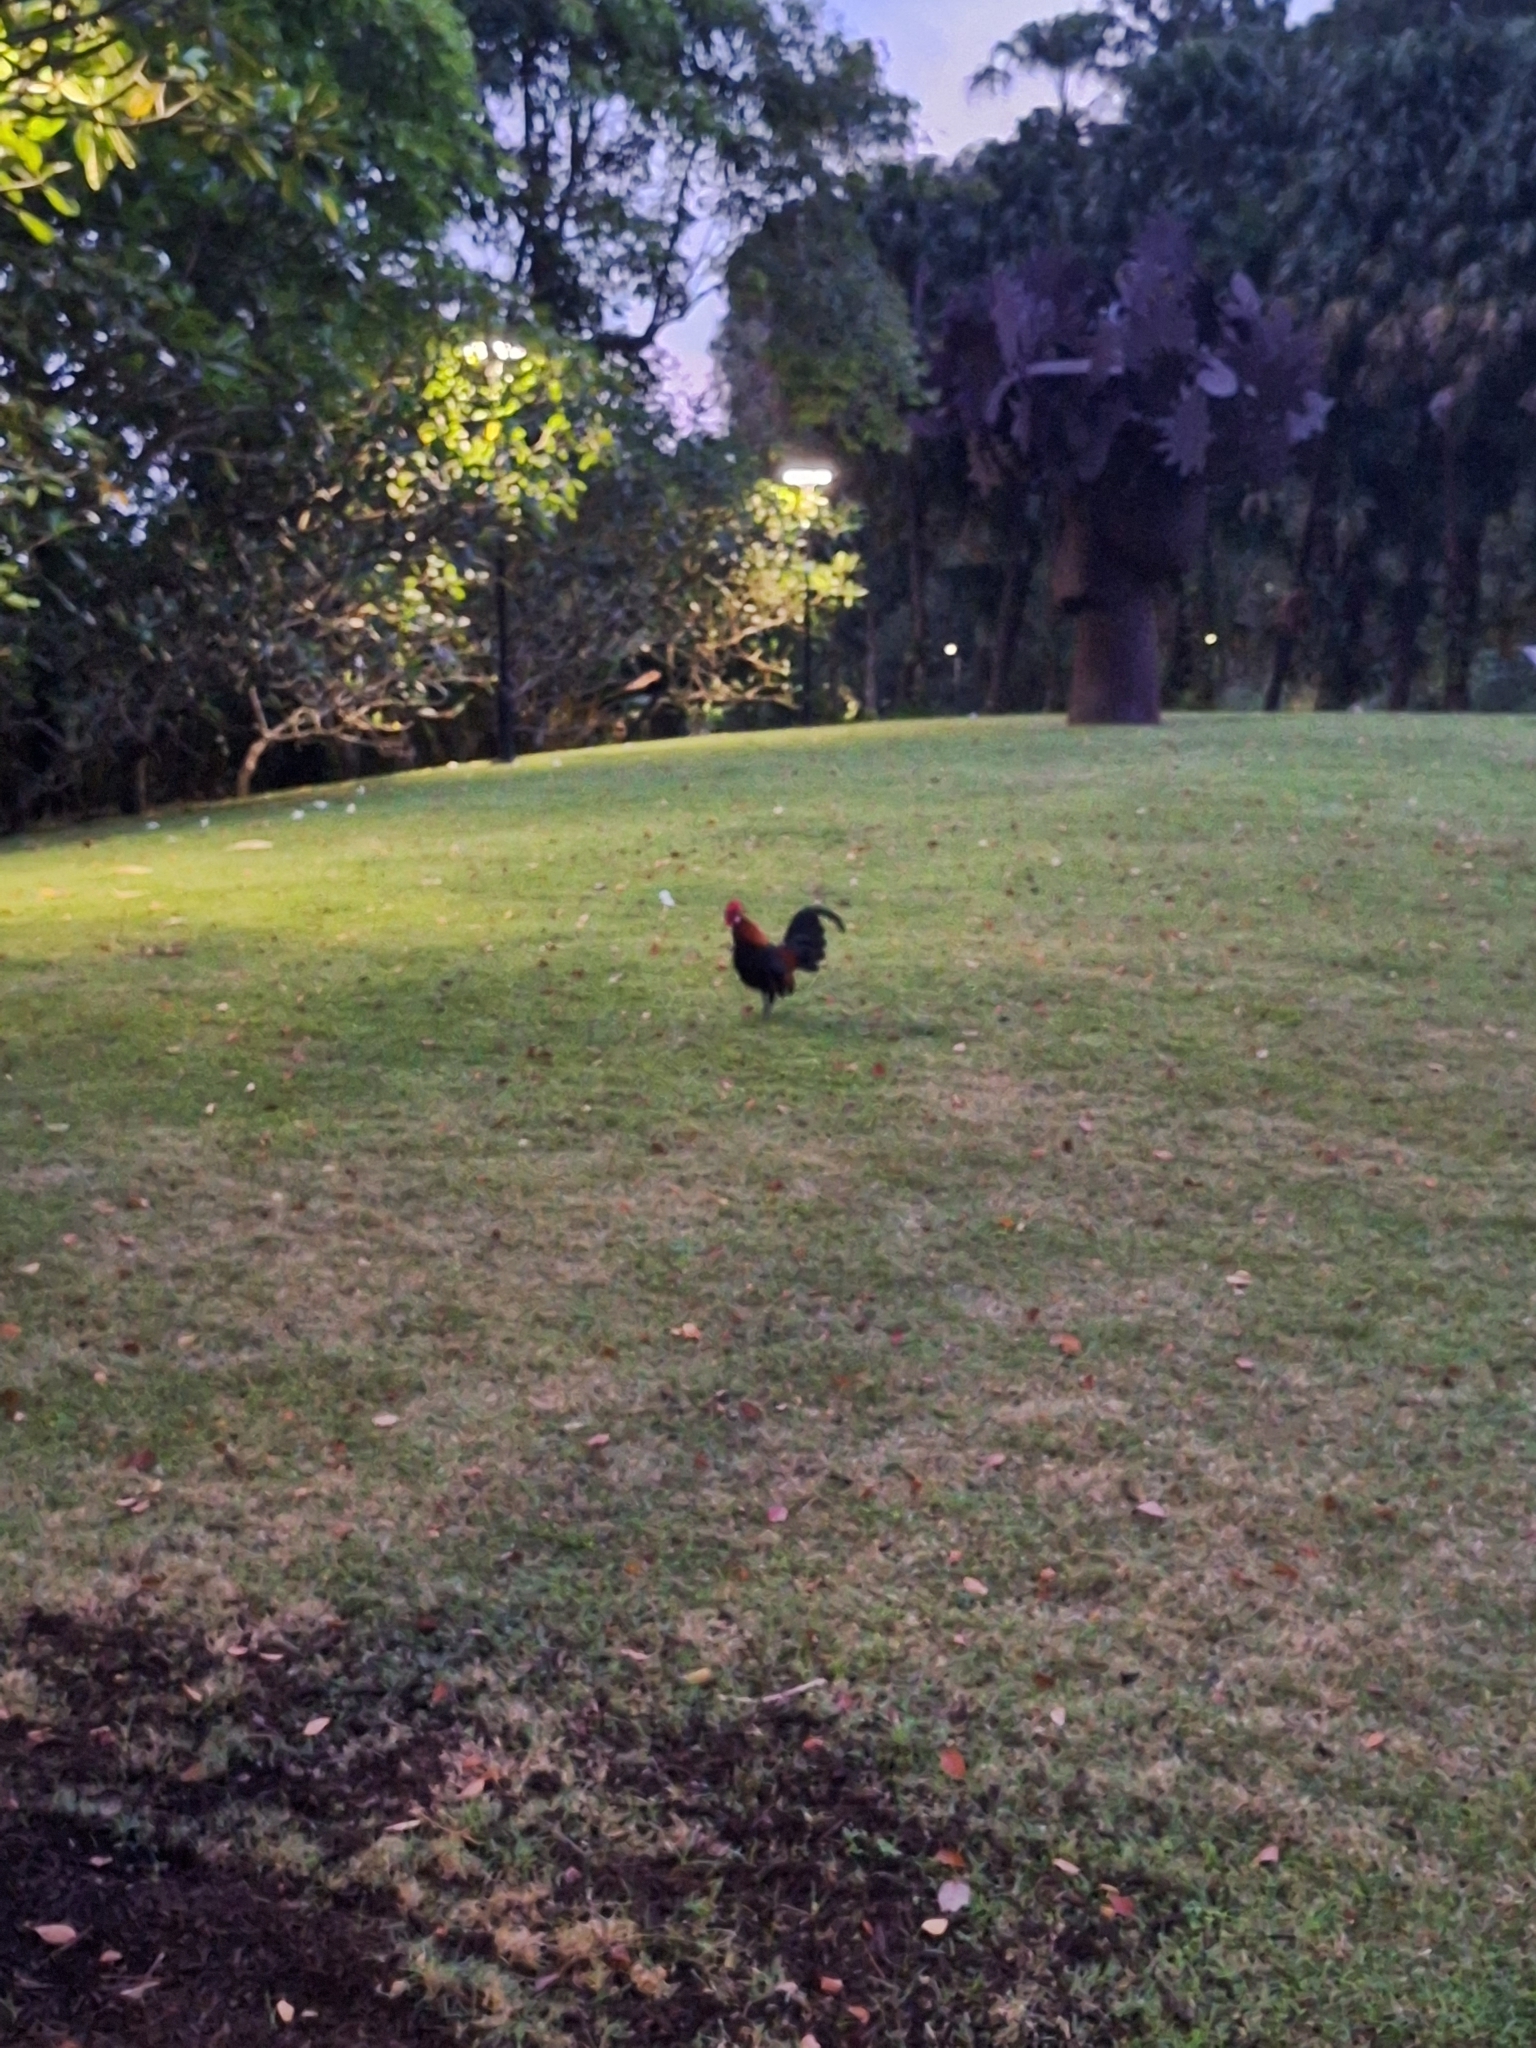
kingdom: Animalia
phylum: Chordata
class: Aves
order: Galliformes
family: Phasianidae
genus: Gallus
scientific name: Gallus gallus
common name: Red junglefowl
